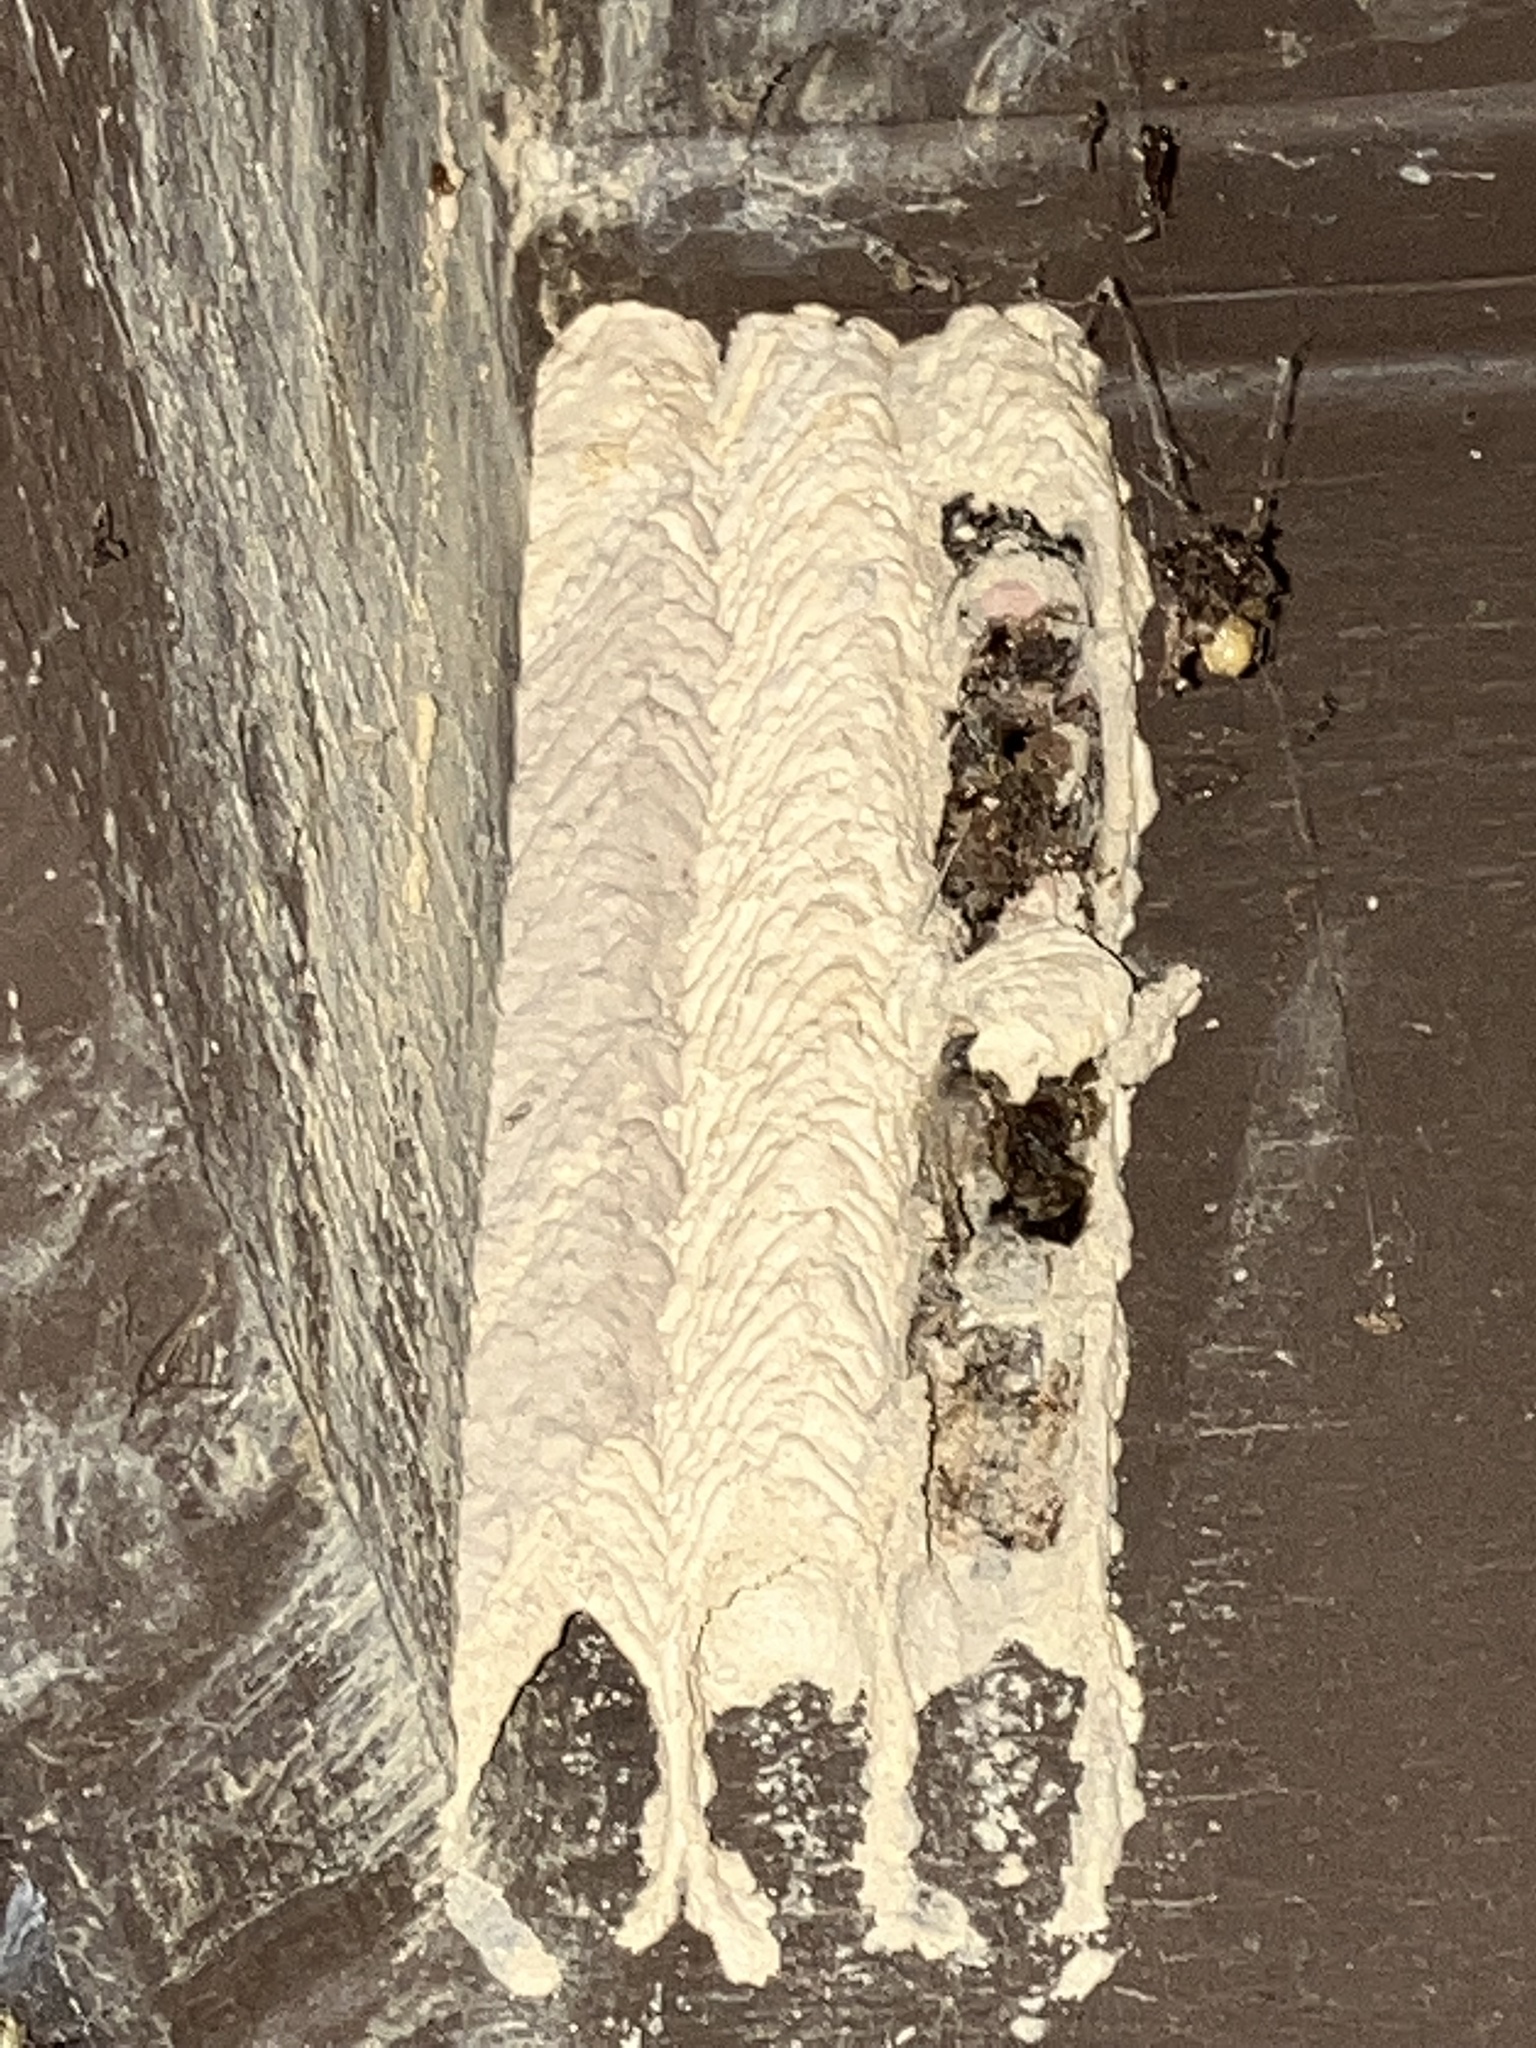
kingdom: Animalia
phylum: Arthropoda
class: Insecta
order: Hymenoptera
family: Crabronidae
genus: Trypoxylon
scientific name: Trypoxylon politum
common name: Organ-pipe mud-dauber wasp
